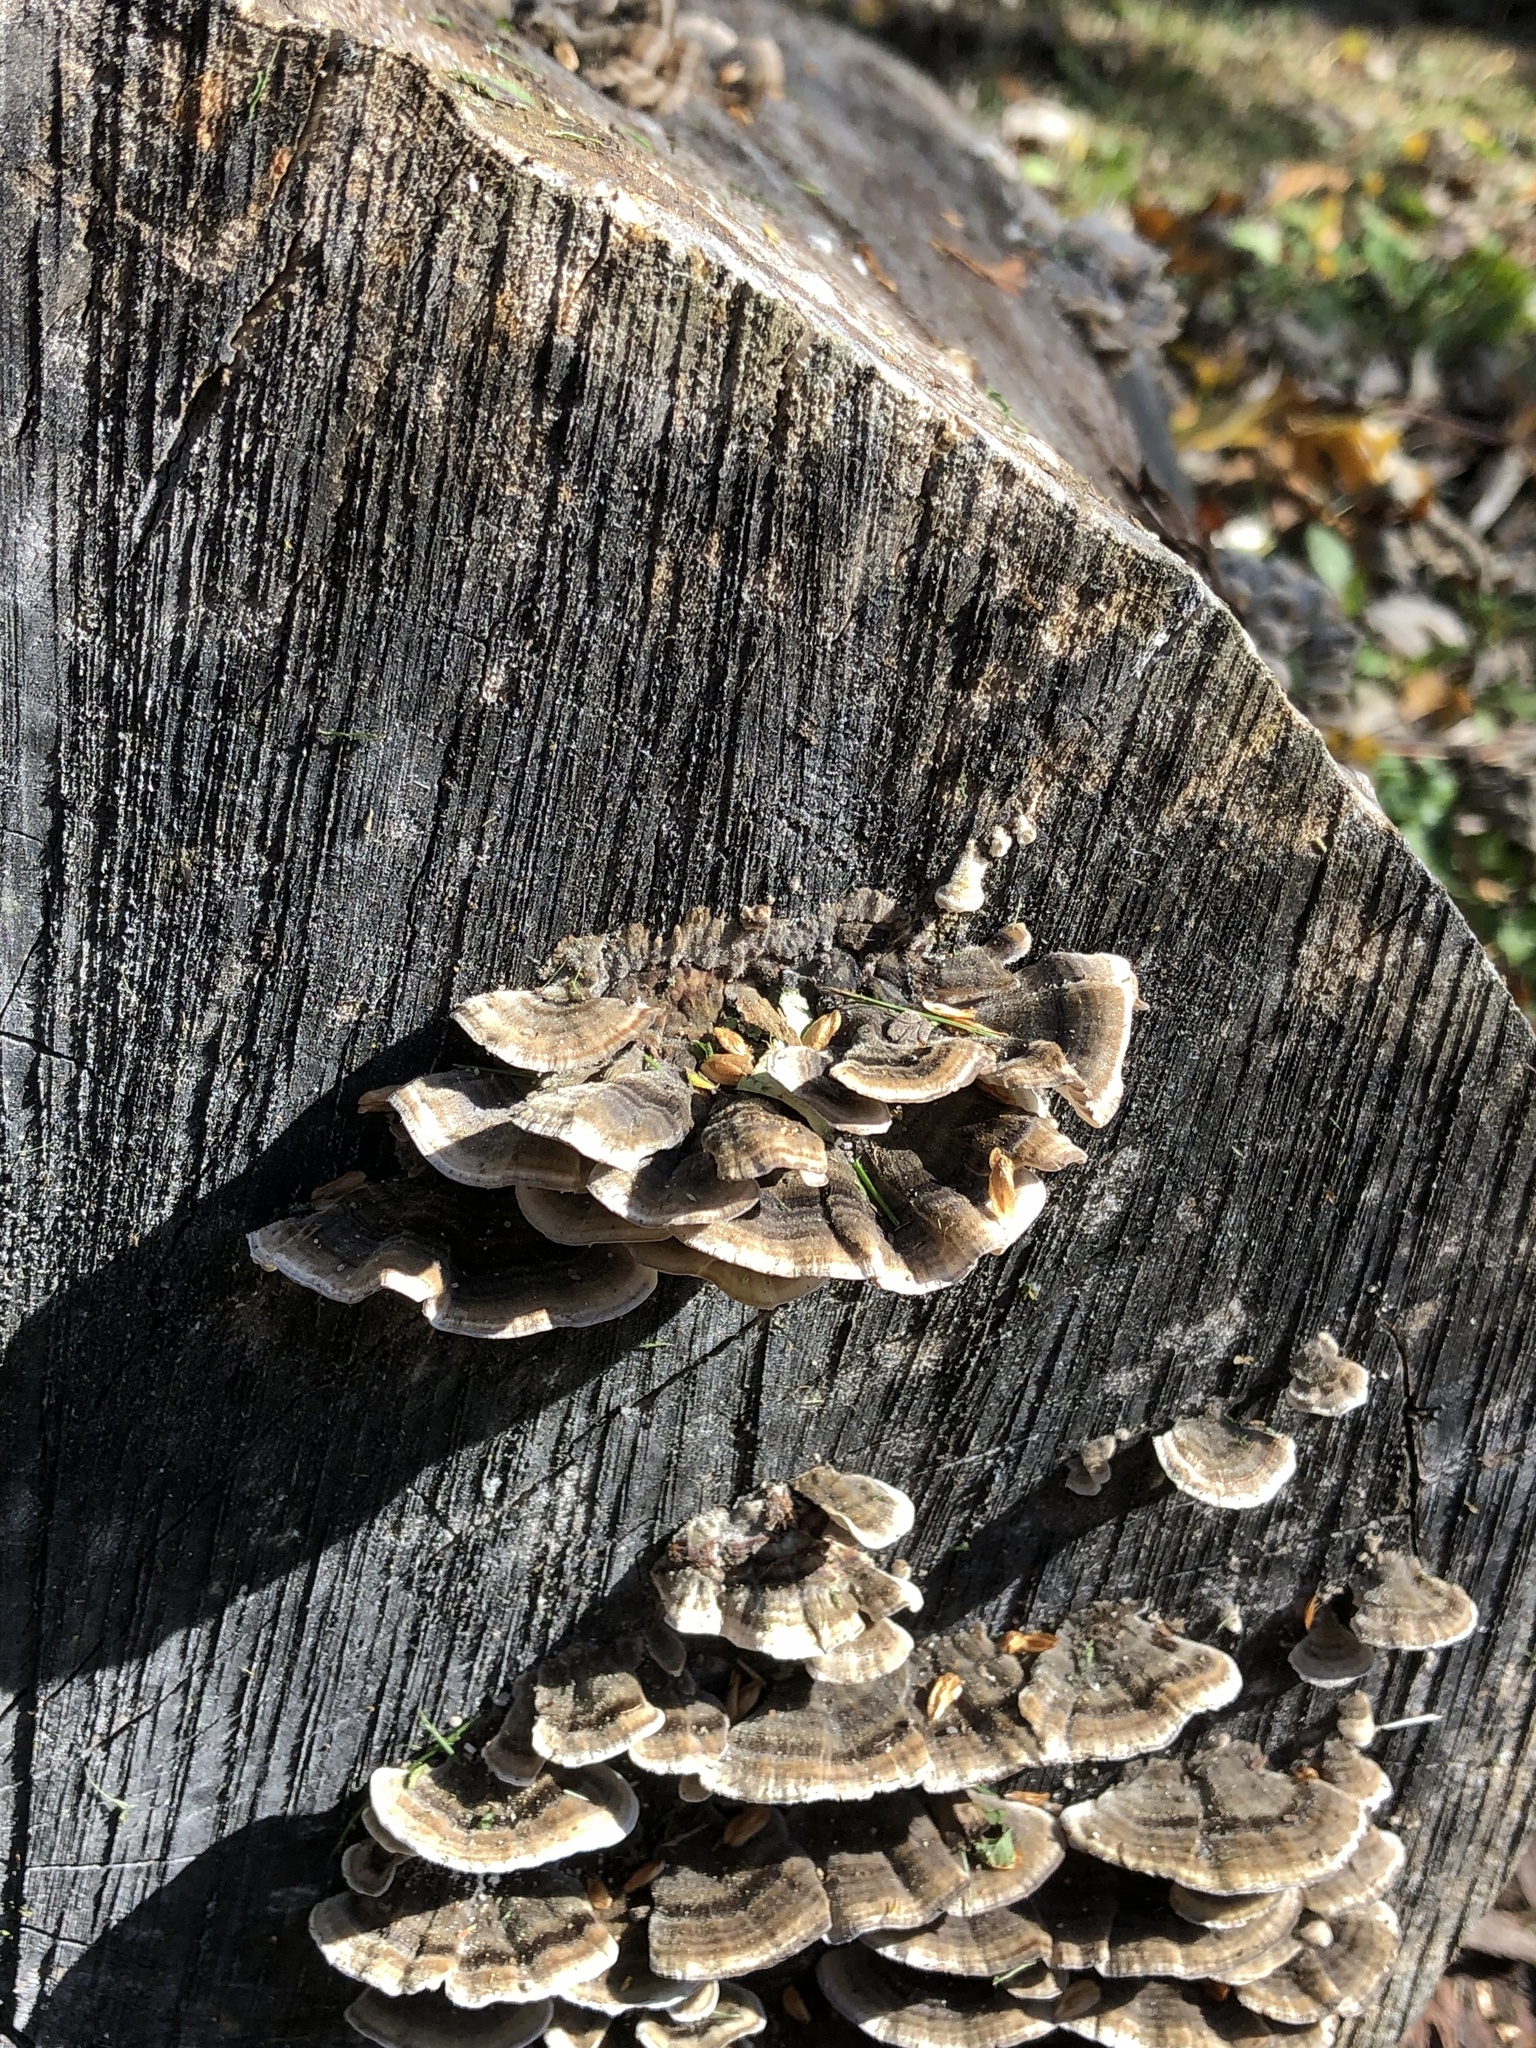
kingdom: Fungi
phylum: Basidiomycota
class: Agaricomycetes
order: Polyporales
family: Polyporaceae
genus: Trametes
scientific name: Trametes versicolor
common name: Turkeytail
